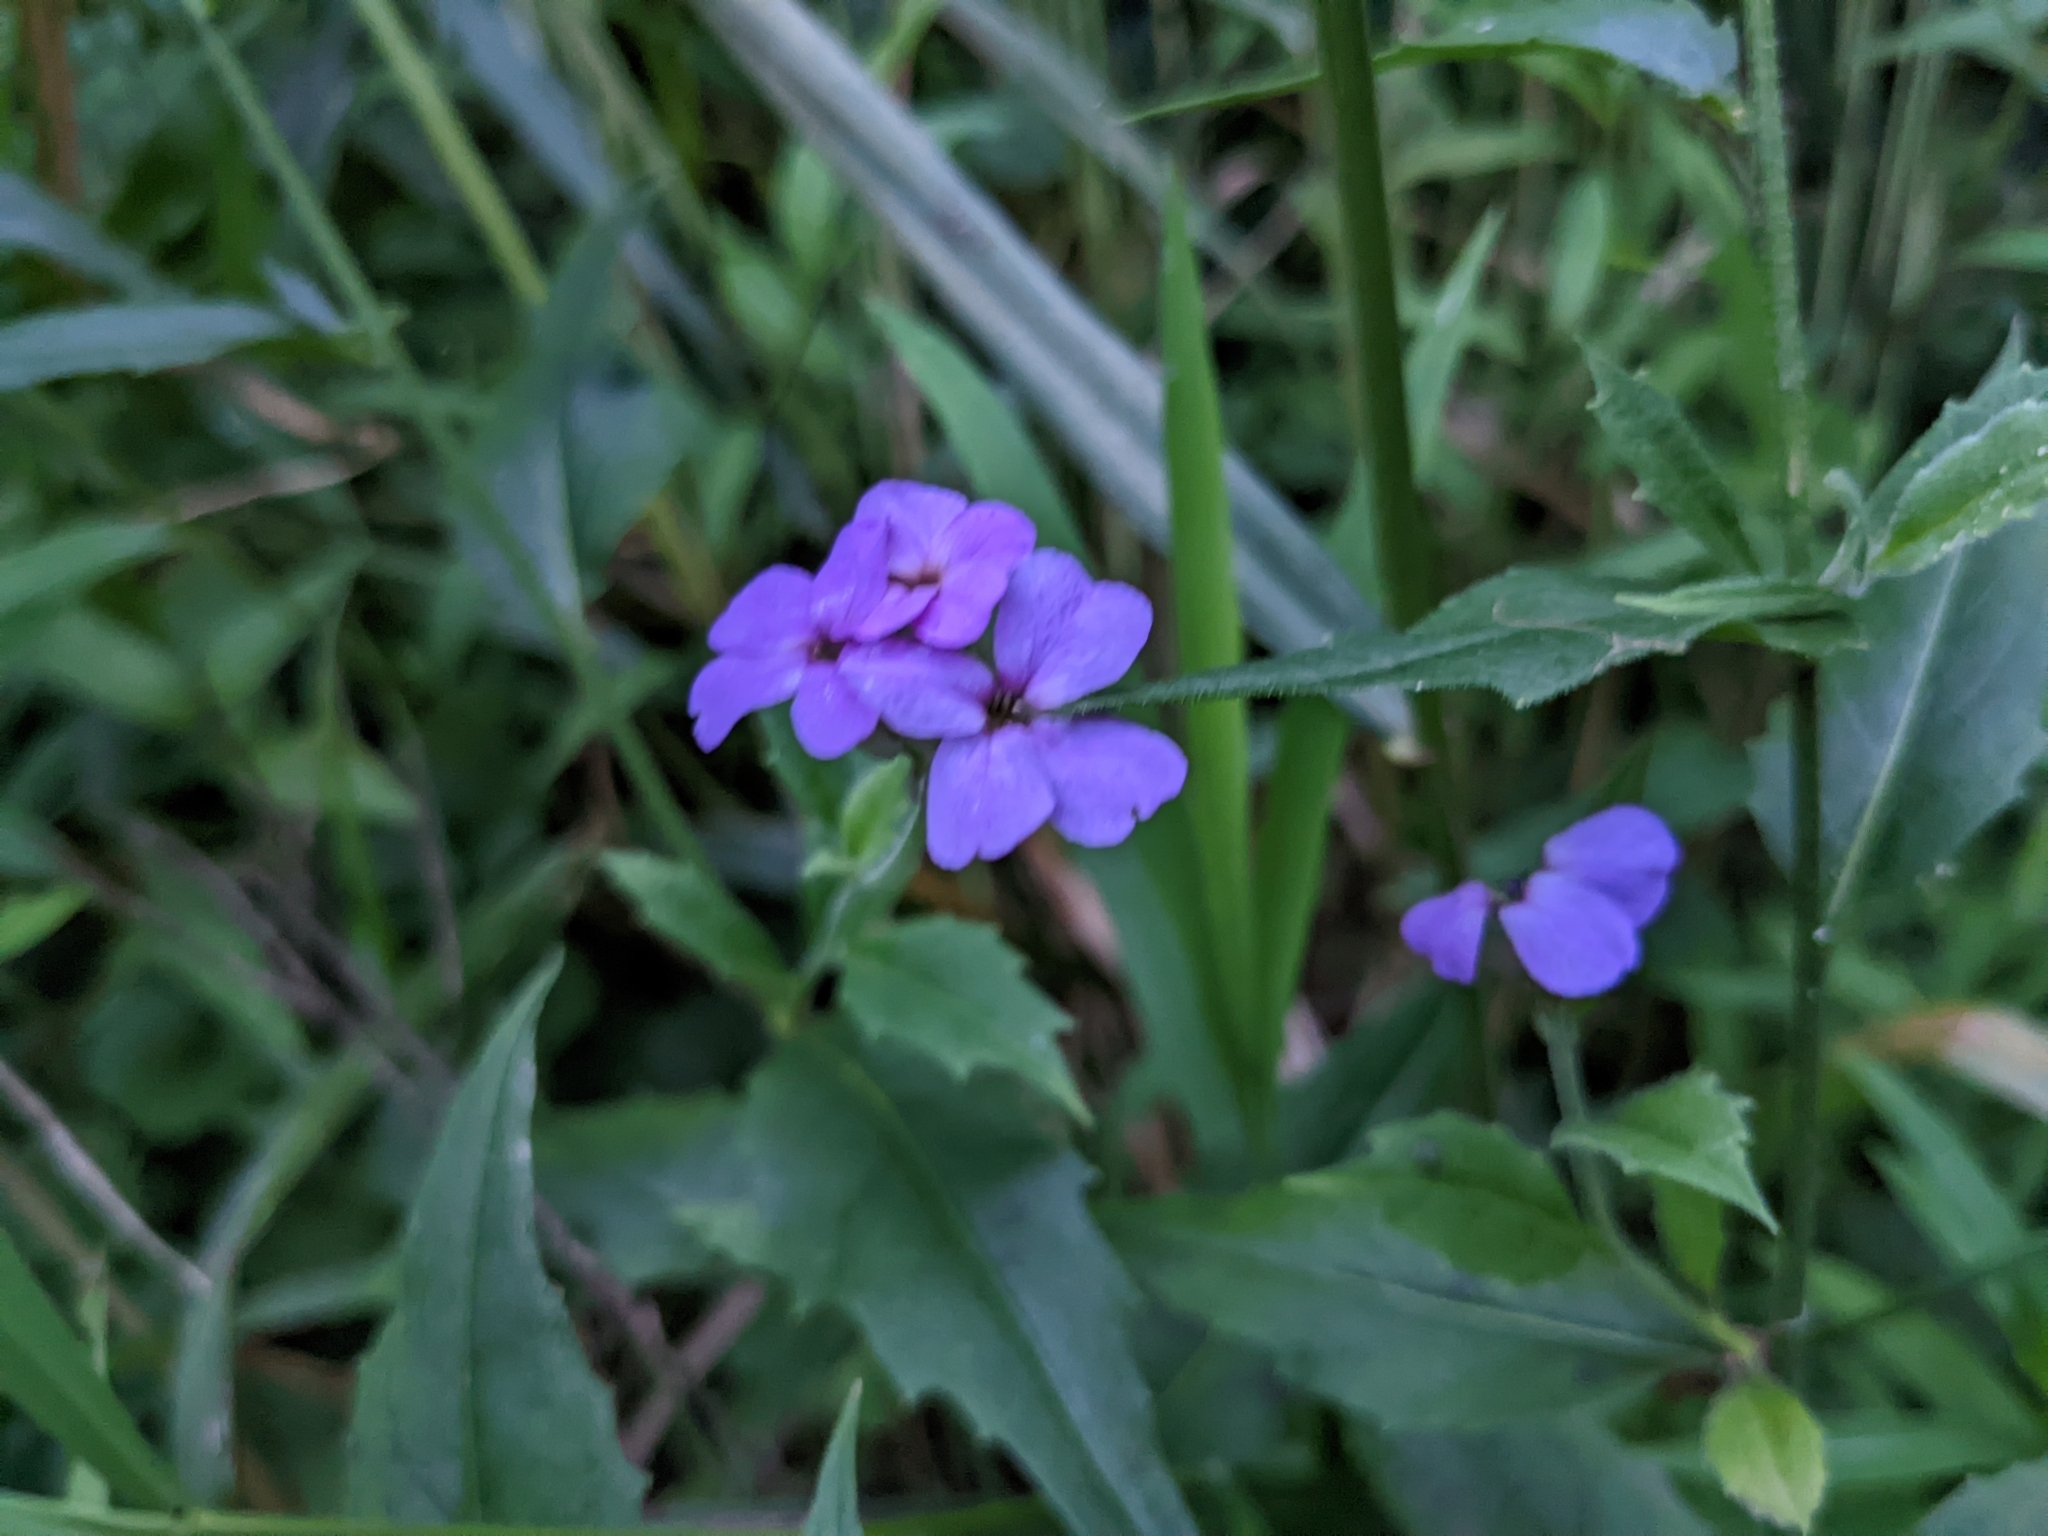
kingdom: Plantae
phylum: Tracheophyta
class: Magnoliopsida
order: Brassicales
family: Brassicaceae
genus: Hesperis
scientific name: Hesperis matronalis
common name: Dame's-violet
